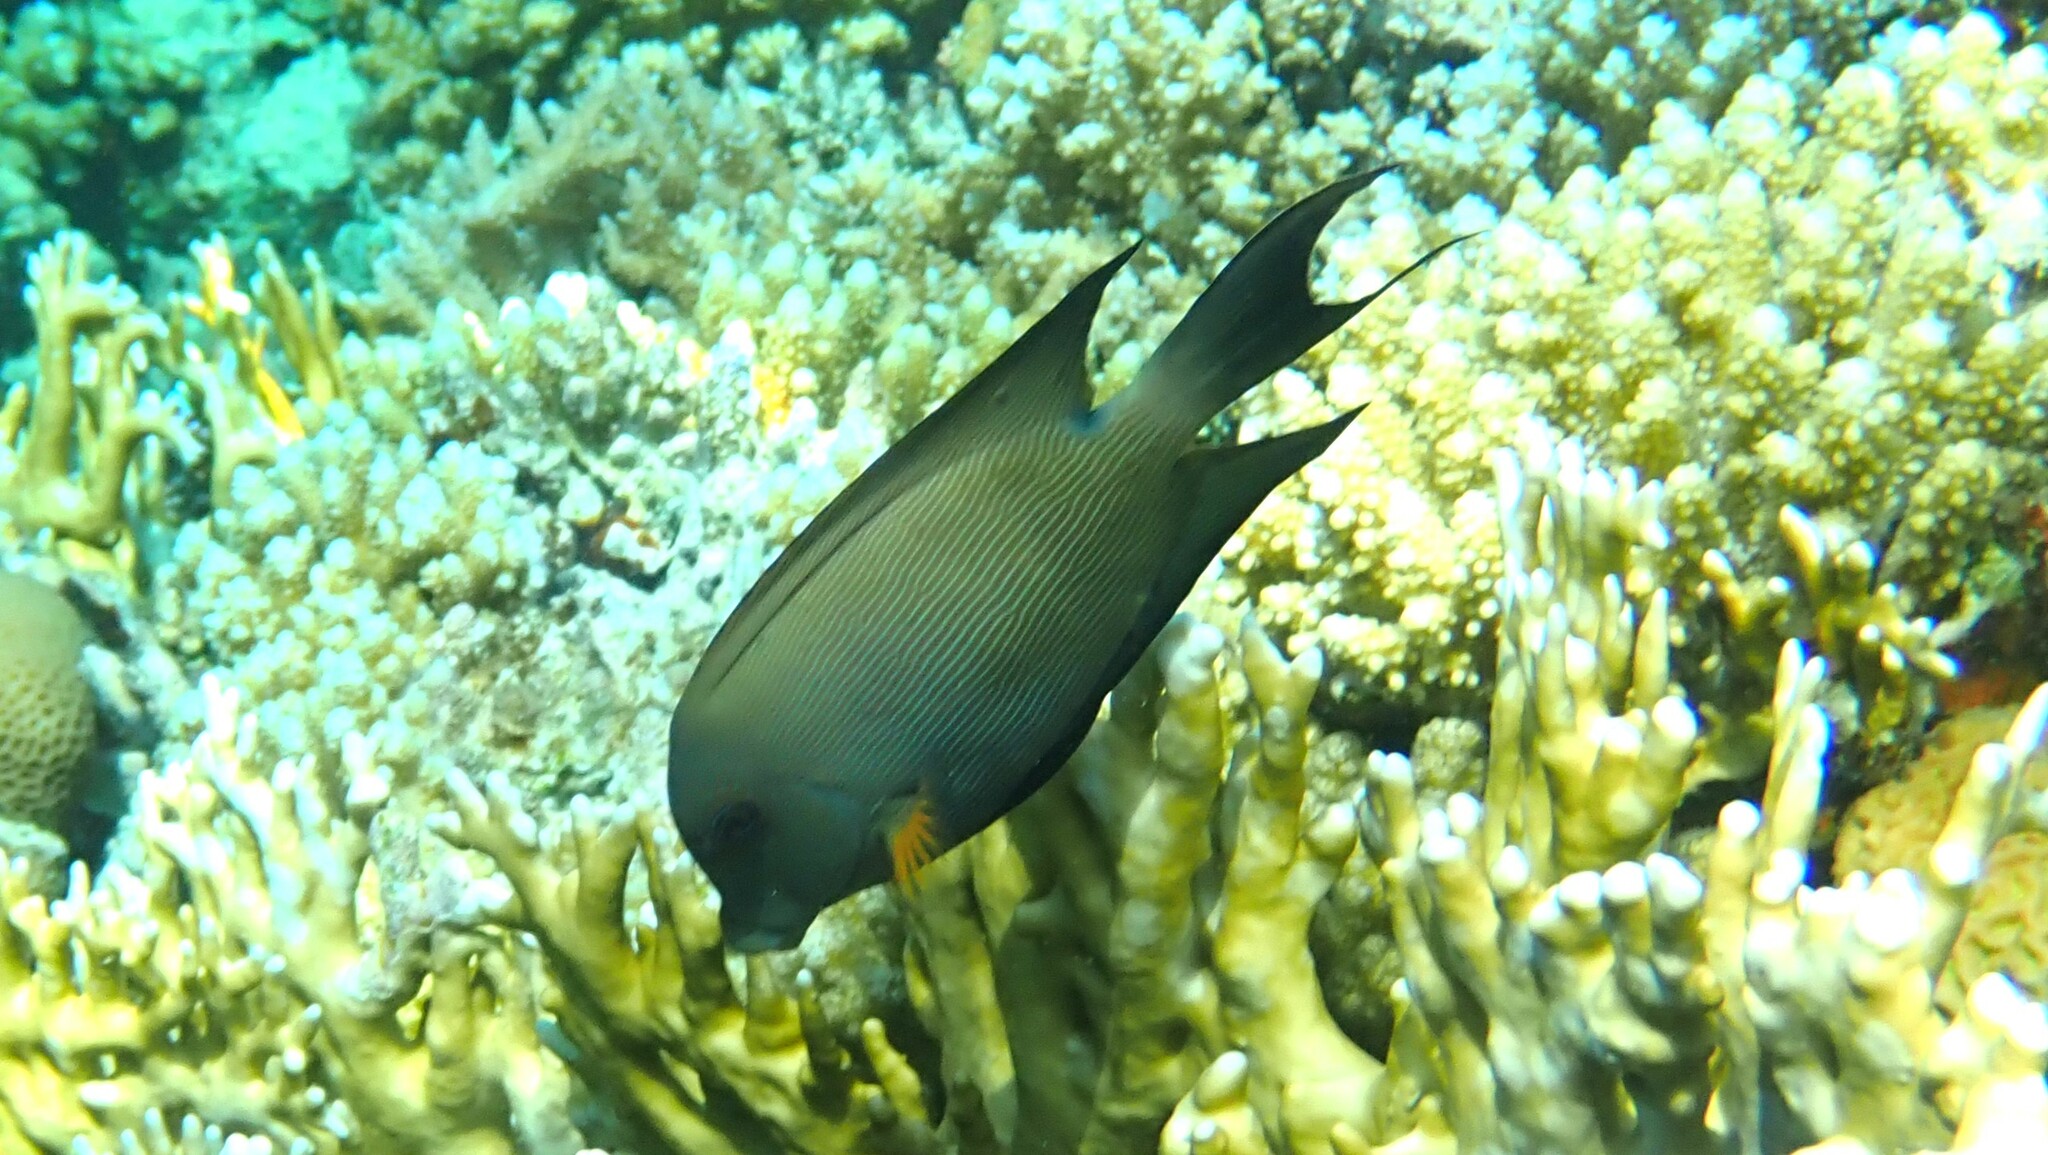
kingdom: Animalia
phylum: Chordata
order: Perciformes
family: Acanthuridae
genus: Ctenochaetus
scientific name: Ctenochaetus striatus
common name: Bristle-toothed surgeonfish
